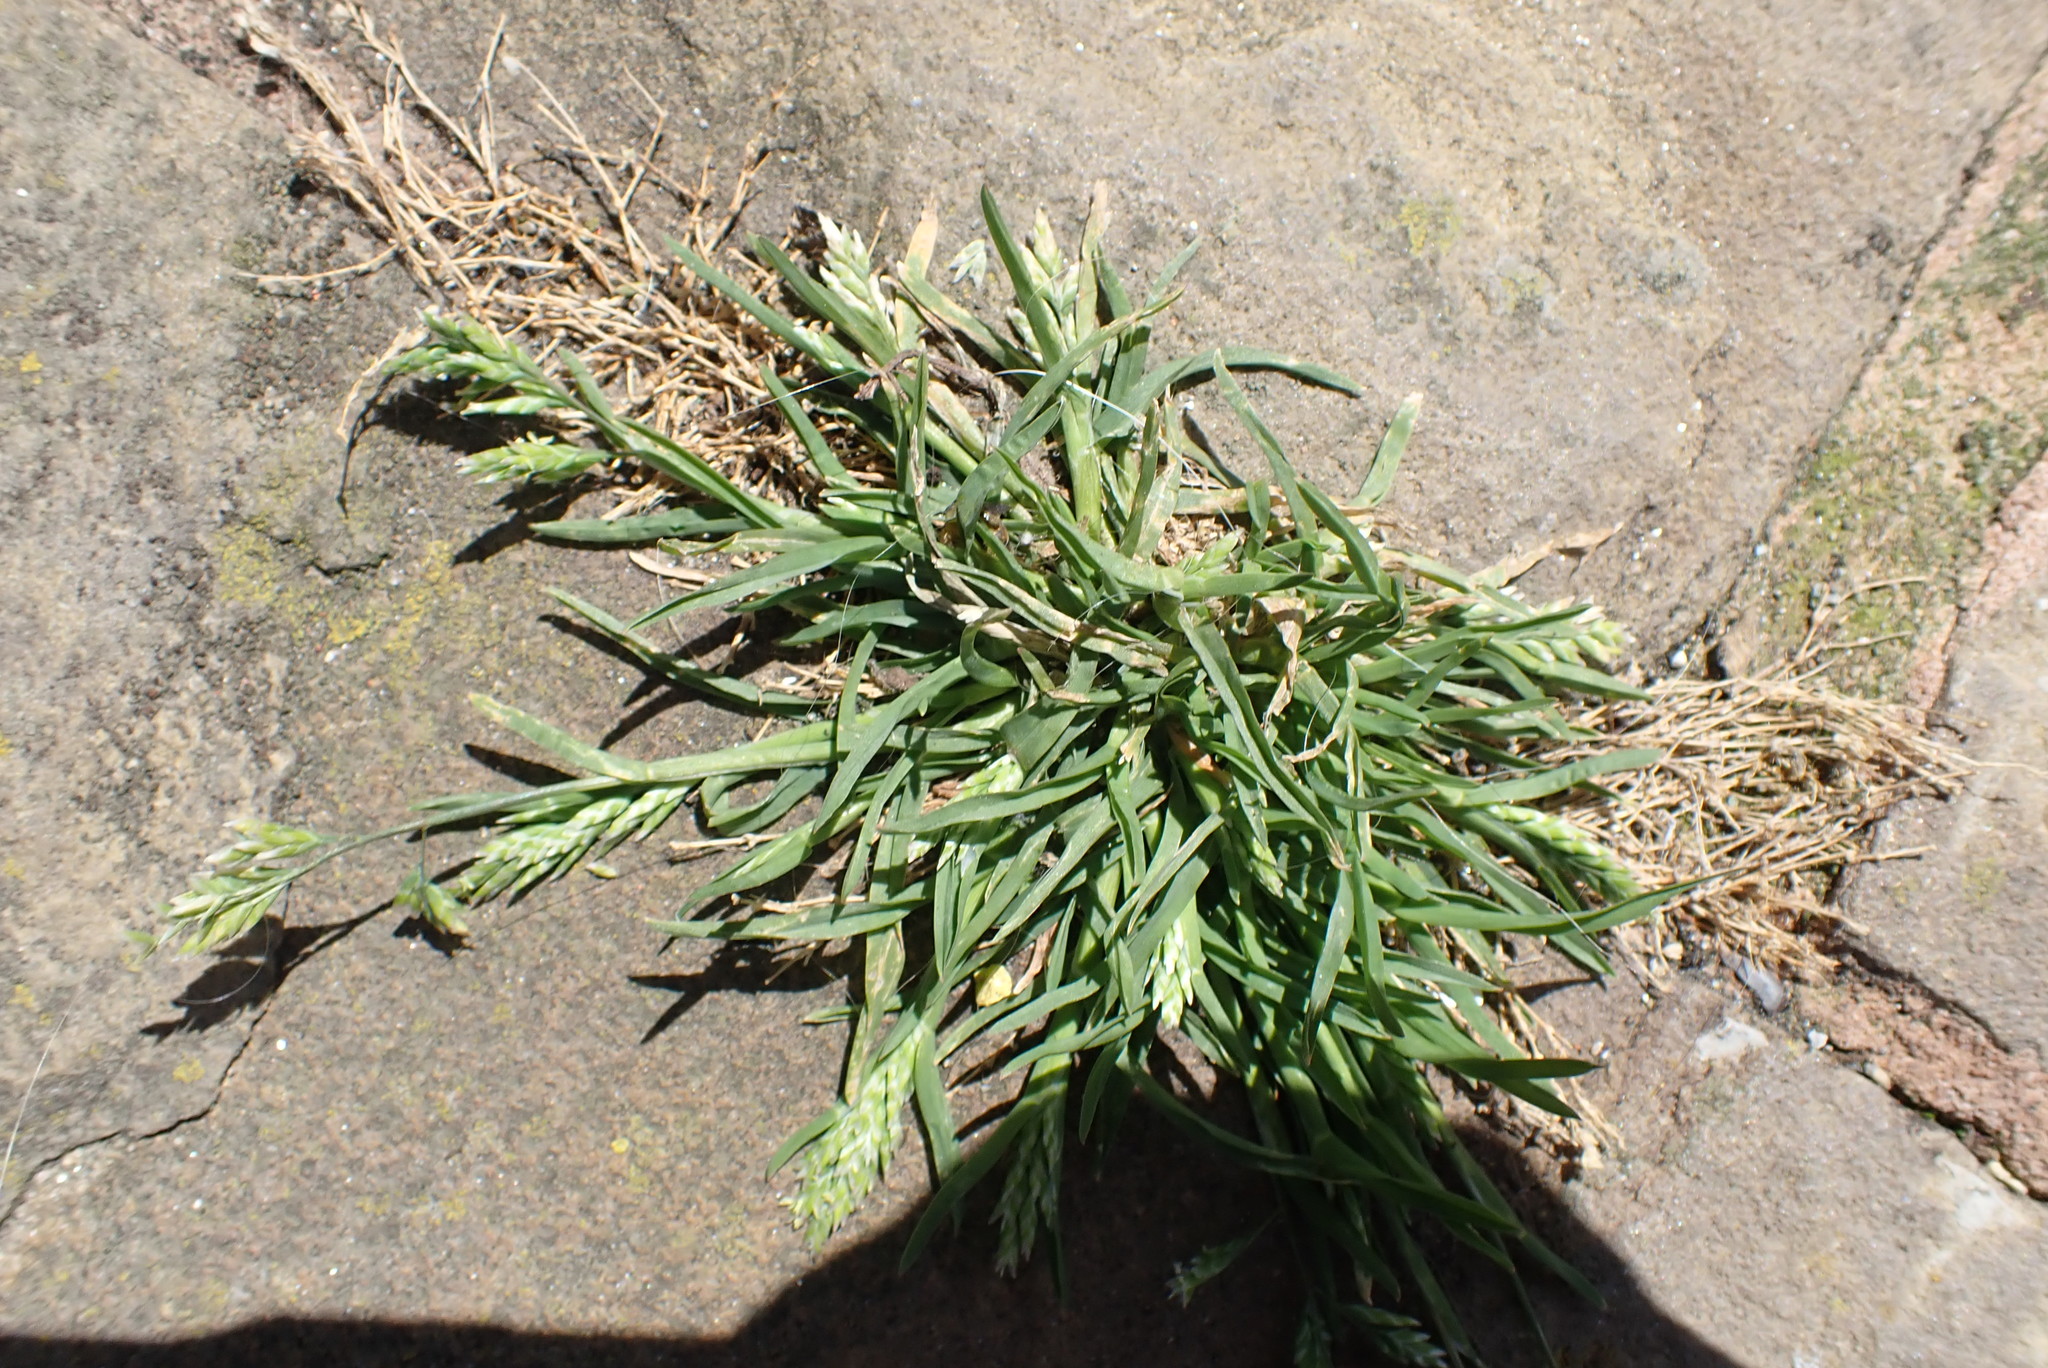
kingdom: Plantae
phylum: Tracheophyta
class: Liliopsida
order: Poales
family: Poaceae
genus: Poa
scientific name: Poa annua
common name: Annual bluegrass
